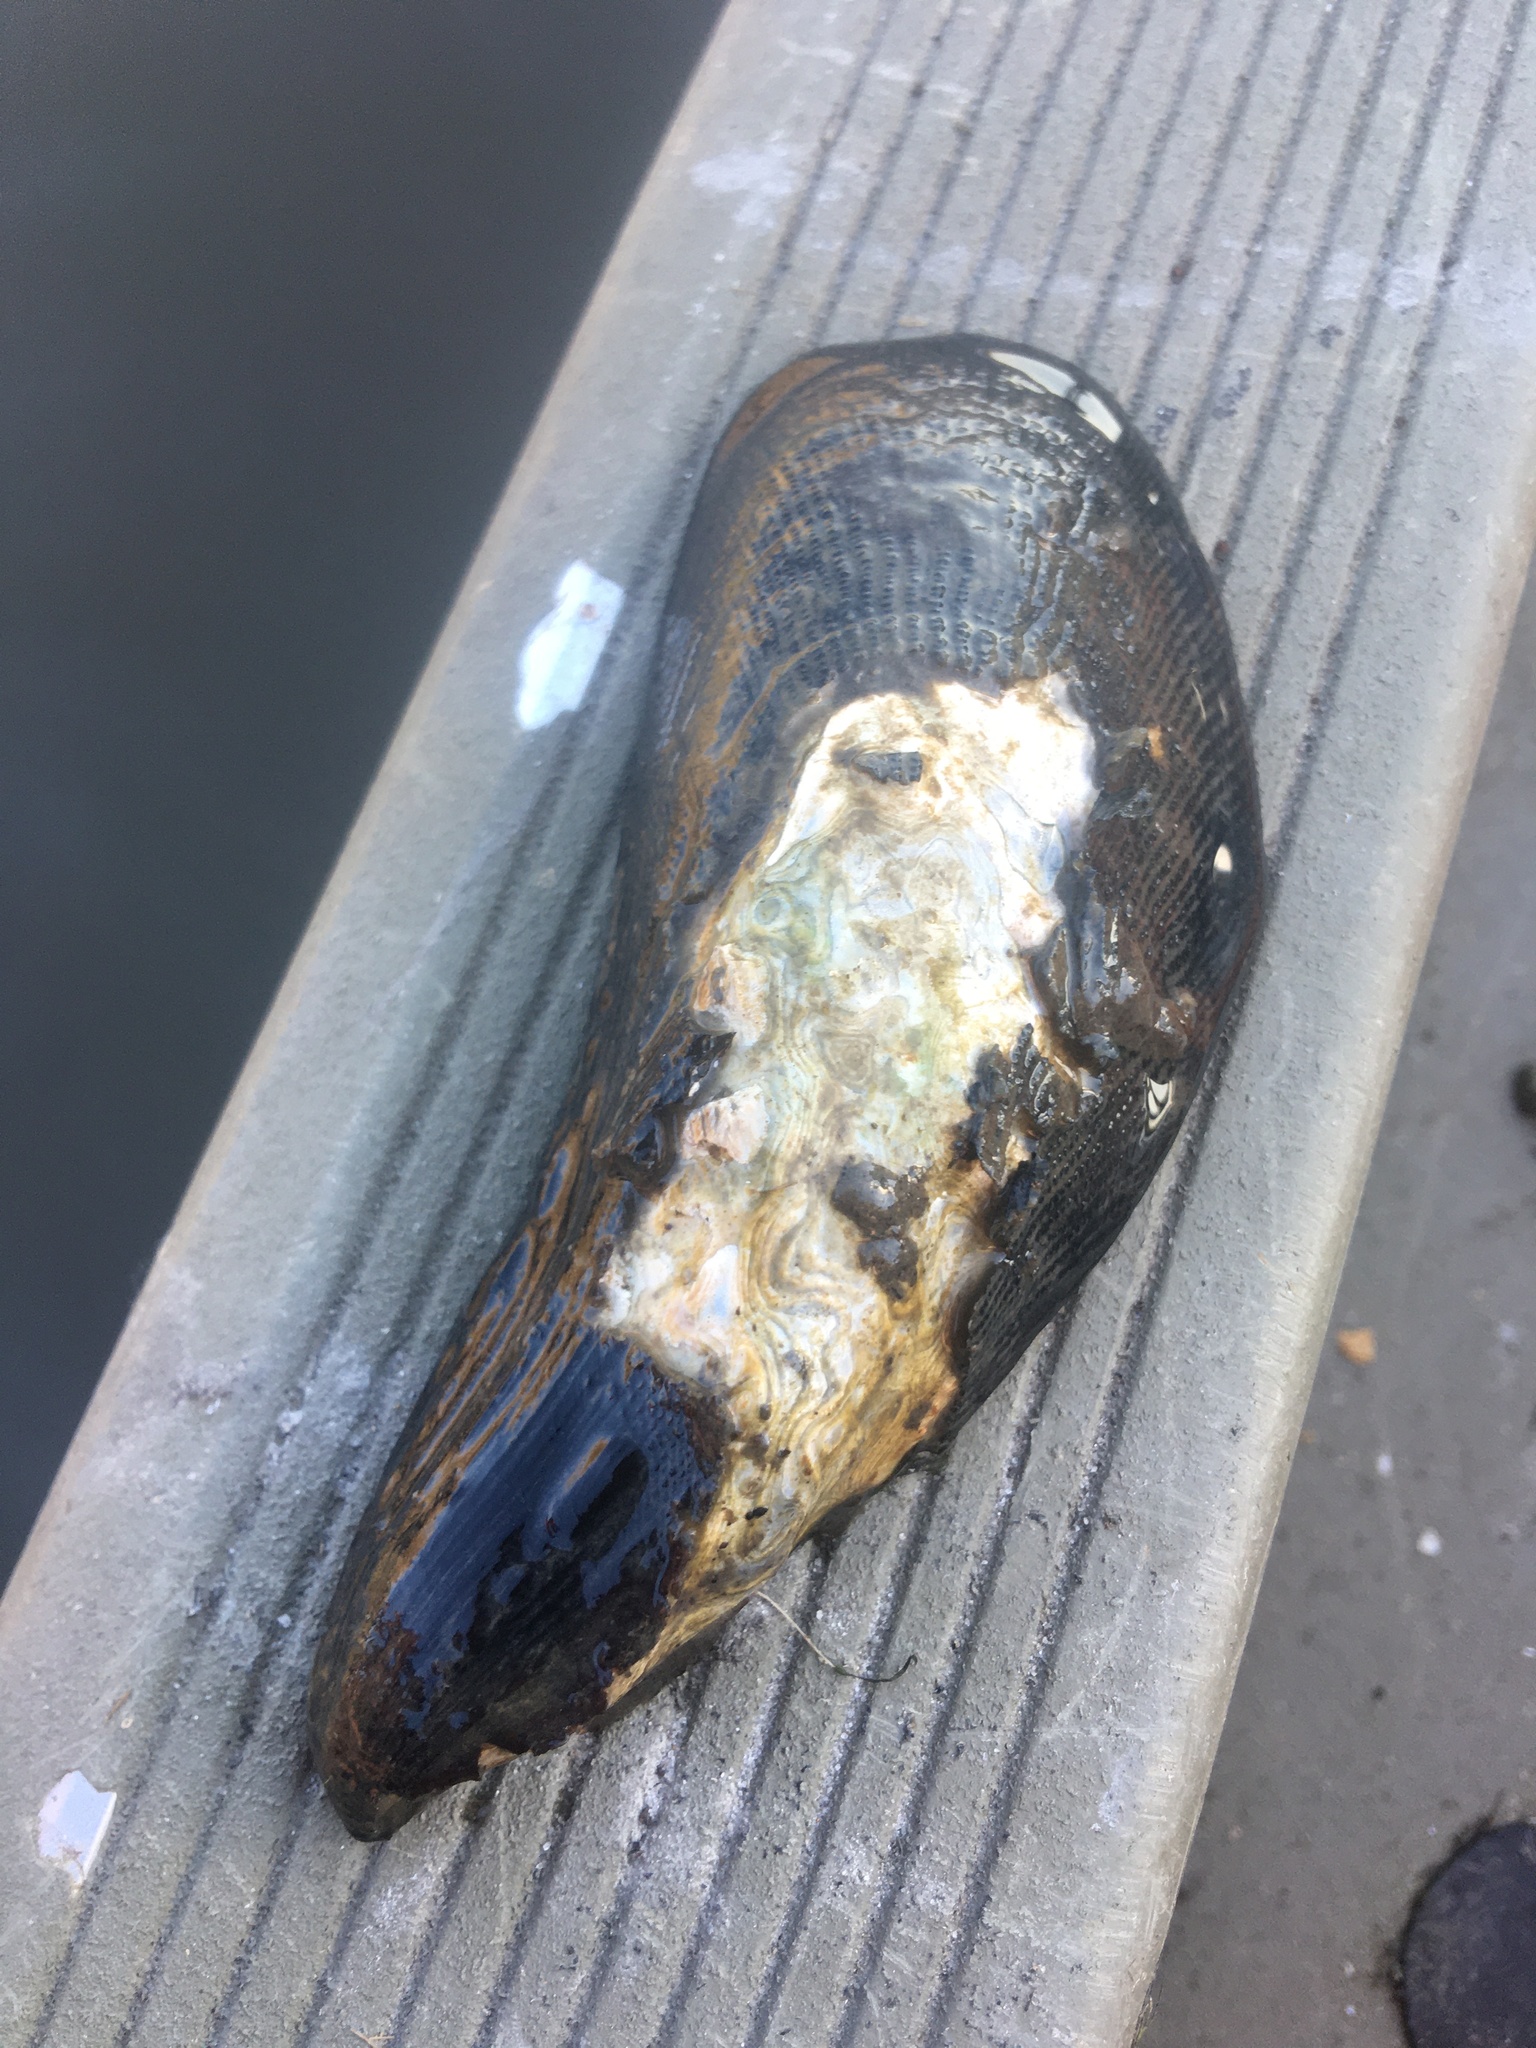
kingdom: Animalia
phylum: Mollusca
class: Bivalvia
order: Mytilida
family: Mytilidae
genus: Geukensia
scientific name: Geukensia granosissima
